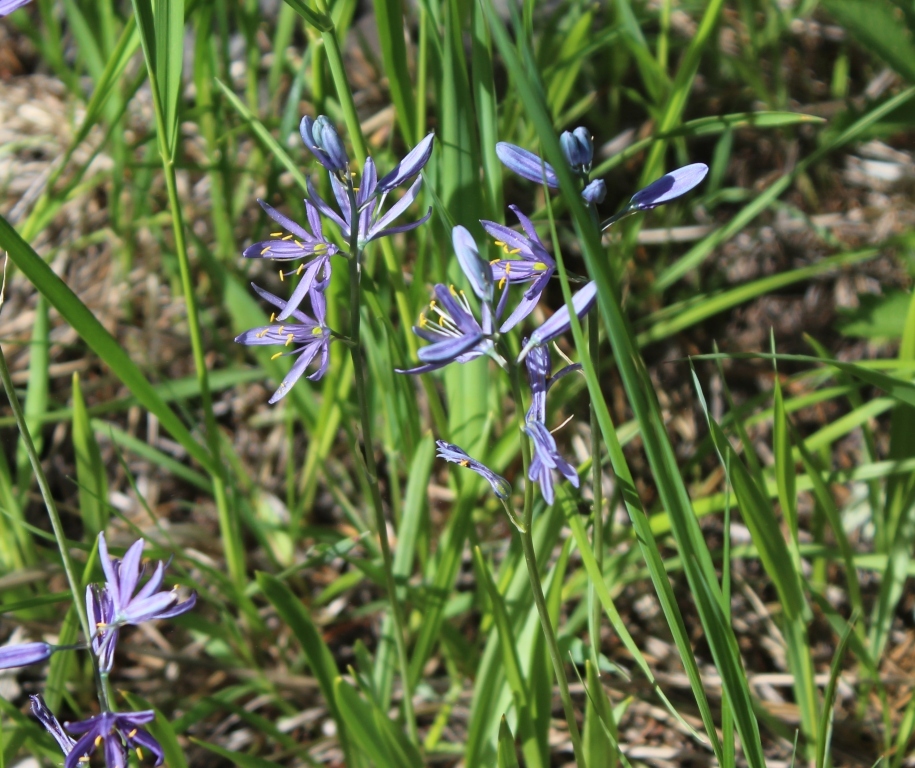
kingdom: Plantae
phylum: Tracheophyta
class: Liliopsida
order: Asparagales
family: Asparagaceae
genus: Camassia
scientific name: Camassia quamash
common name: Common camas
